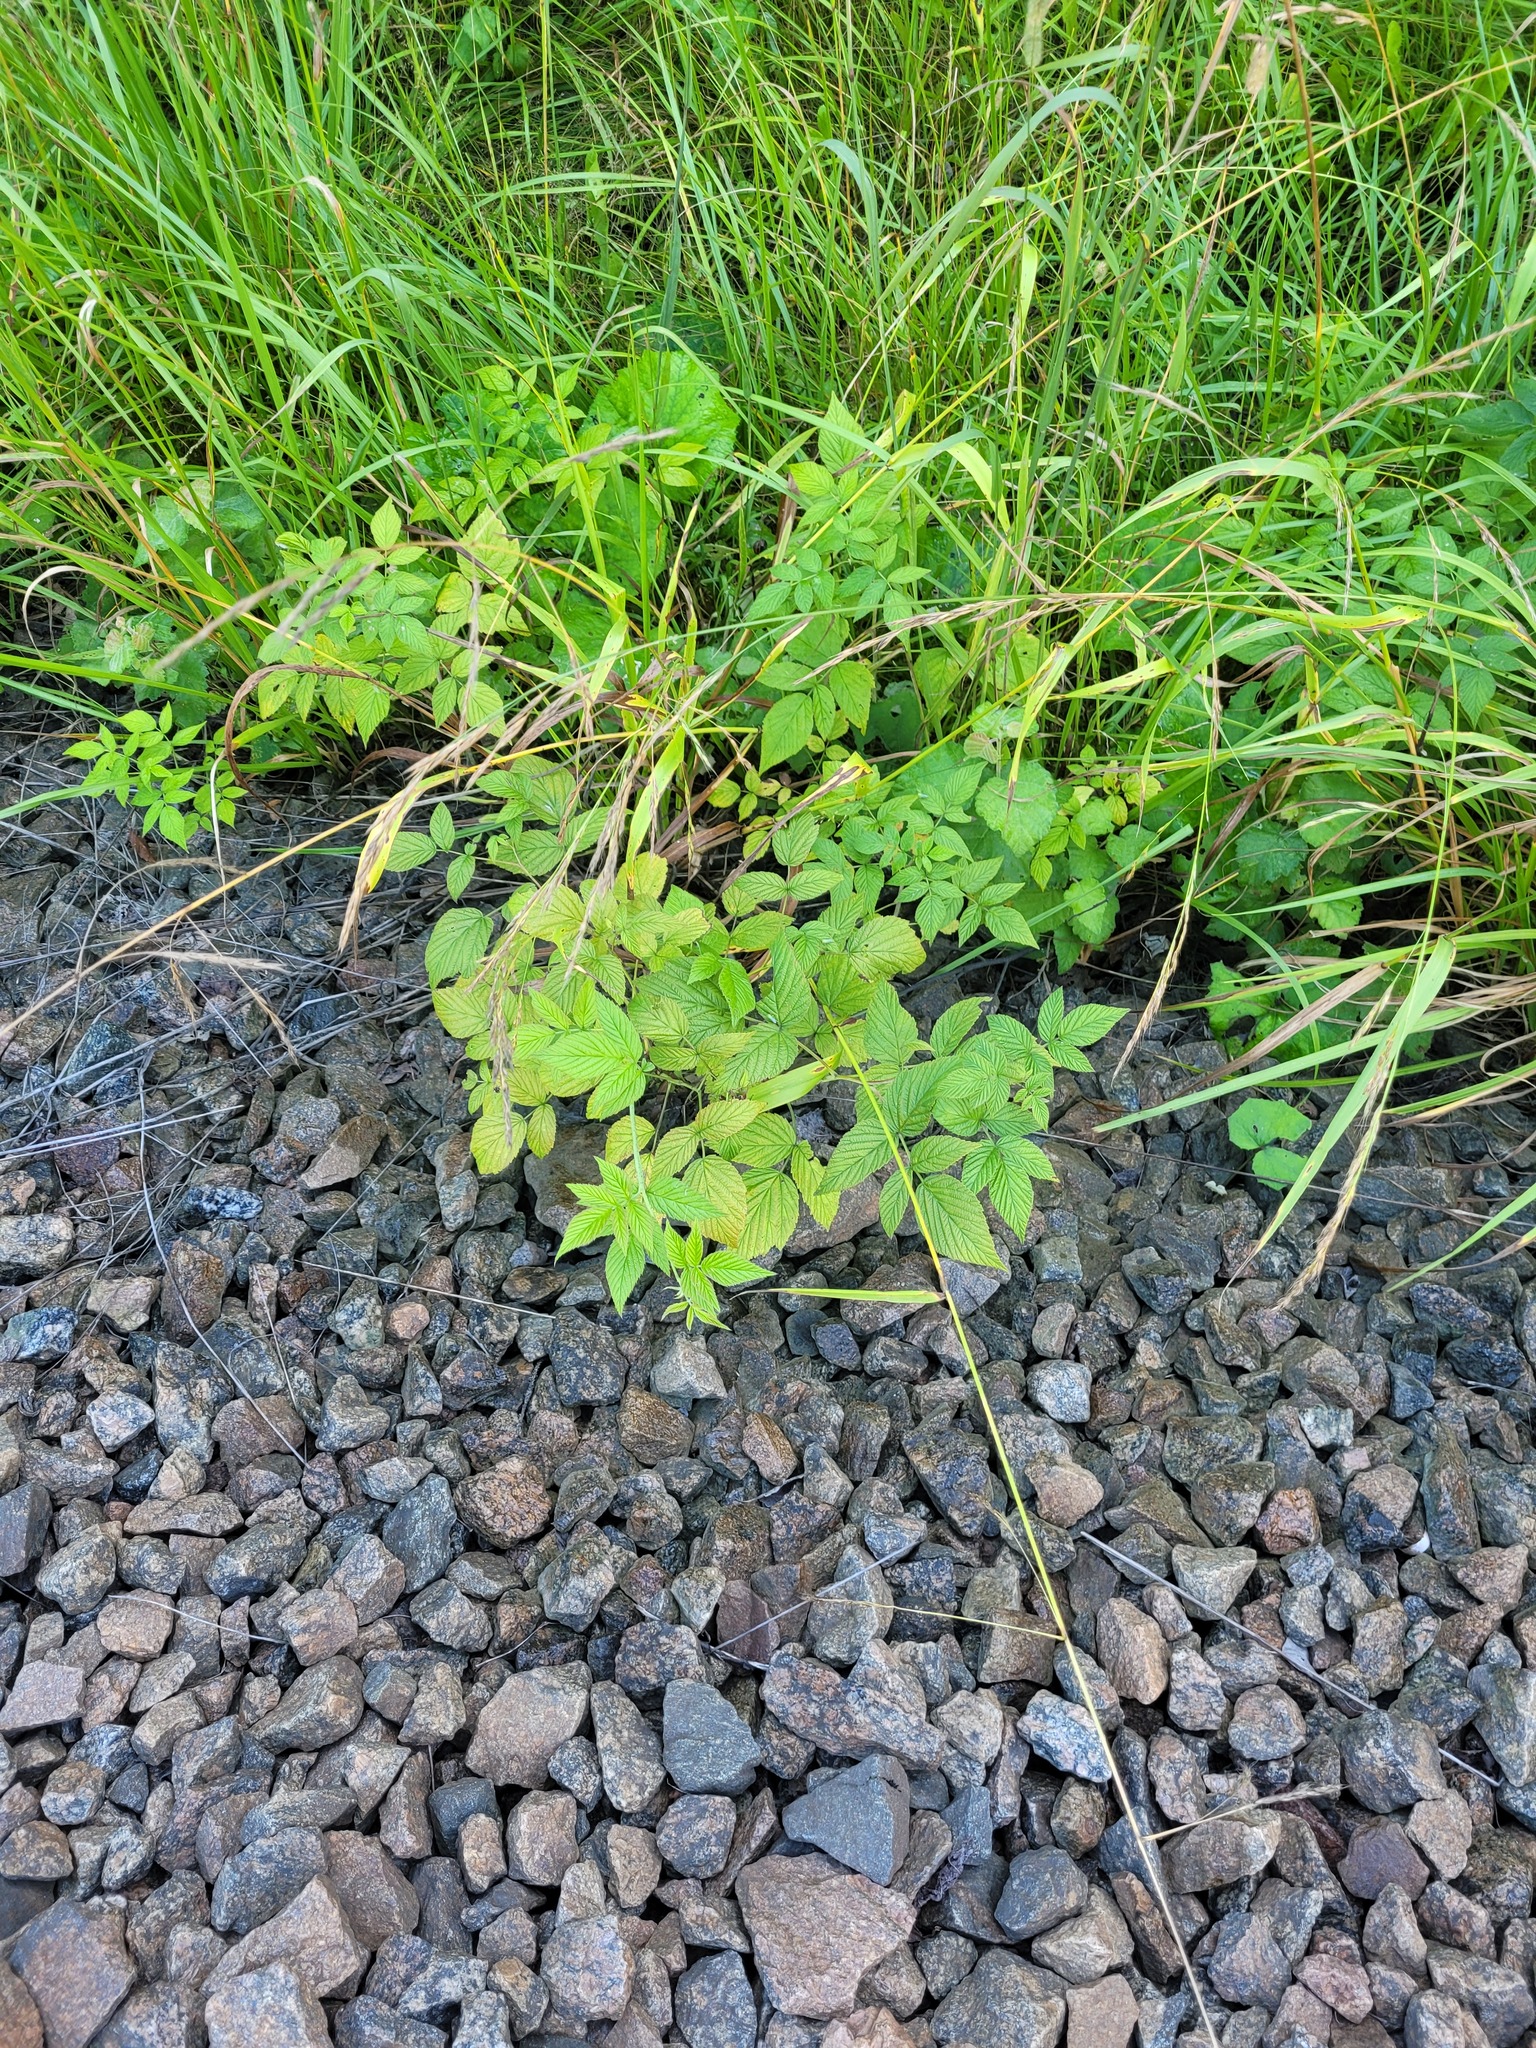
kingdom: Plantae
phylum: Tracheophyta
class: Magnoliopsida
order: Rosales
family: Rosaceae
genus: Rubus
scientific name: Rubus idaeus
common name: Raspberry
